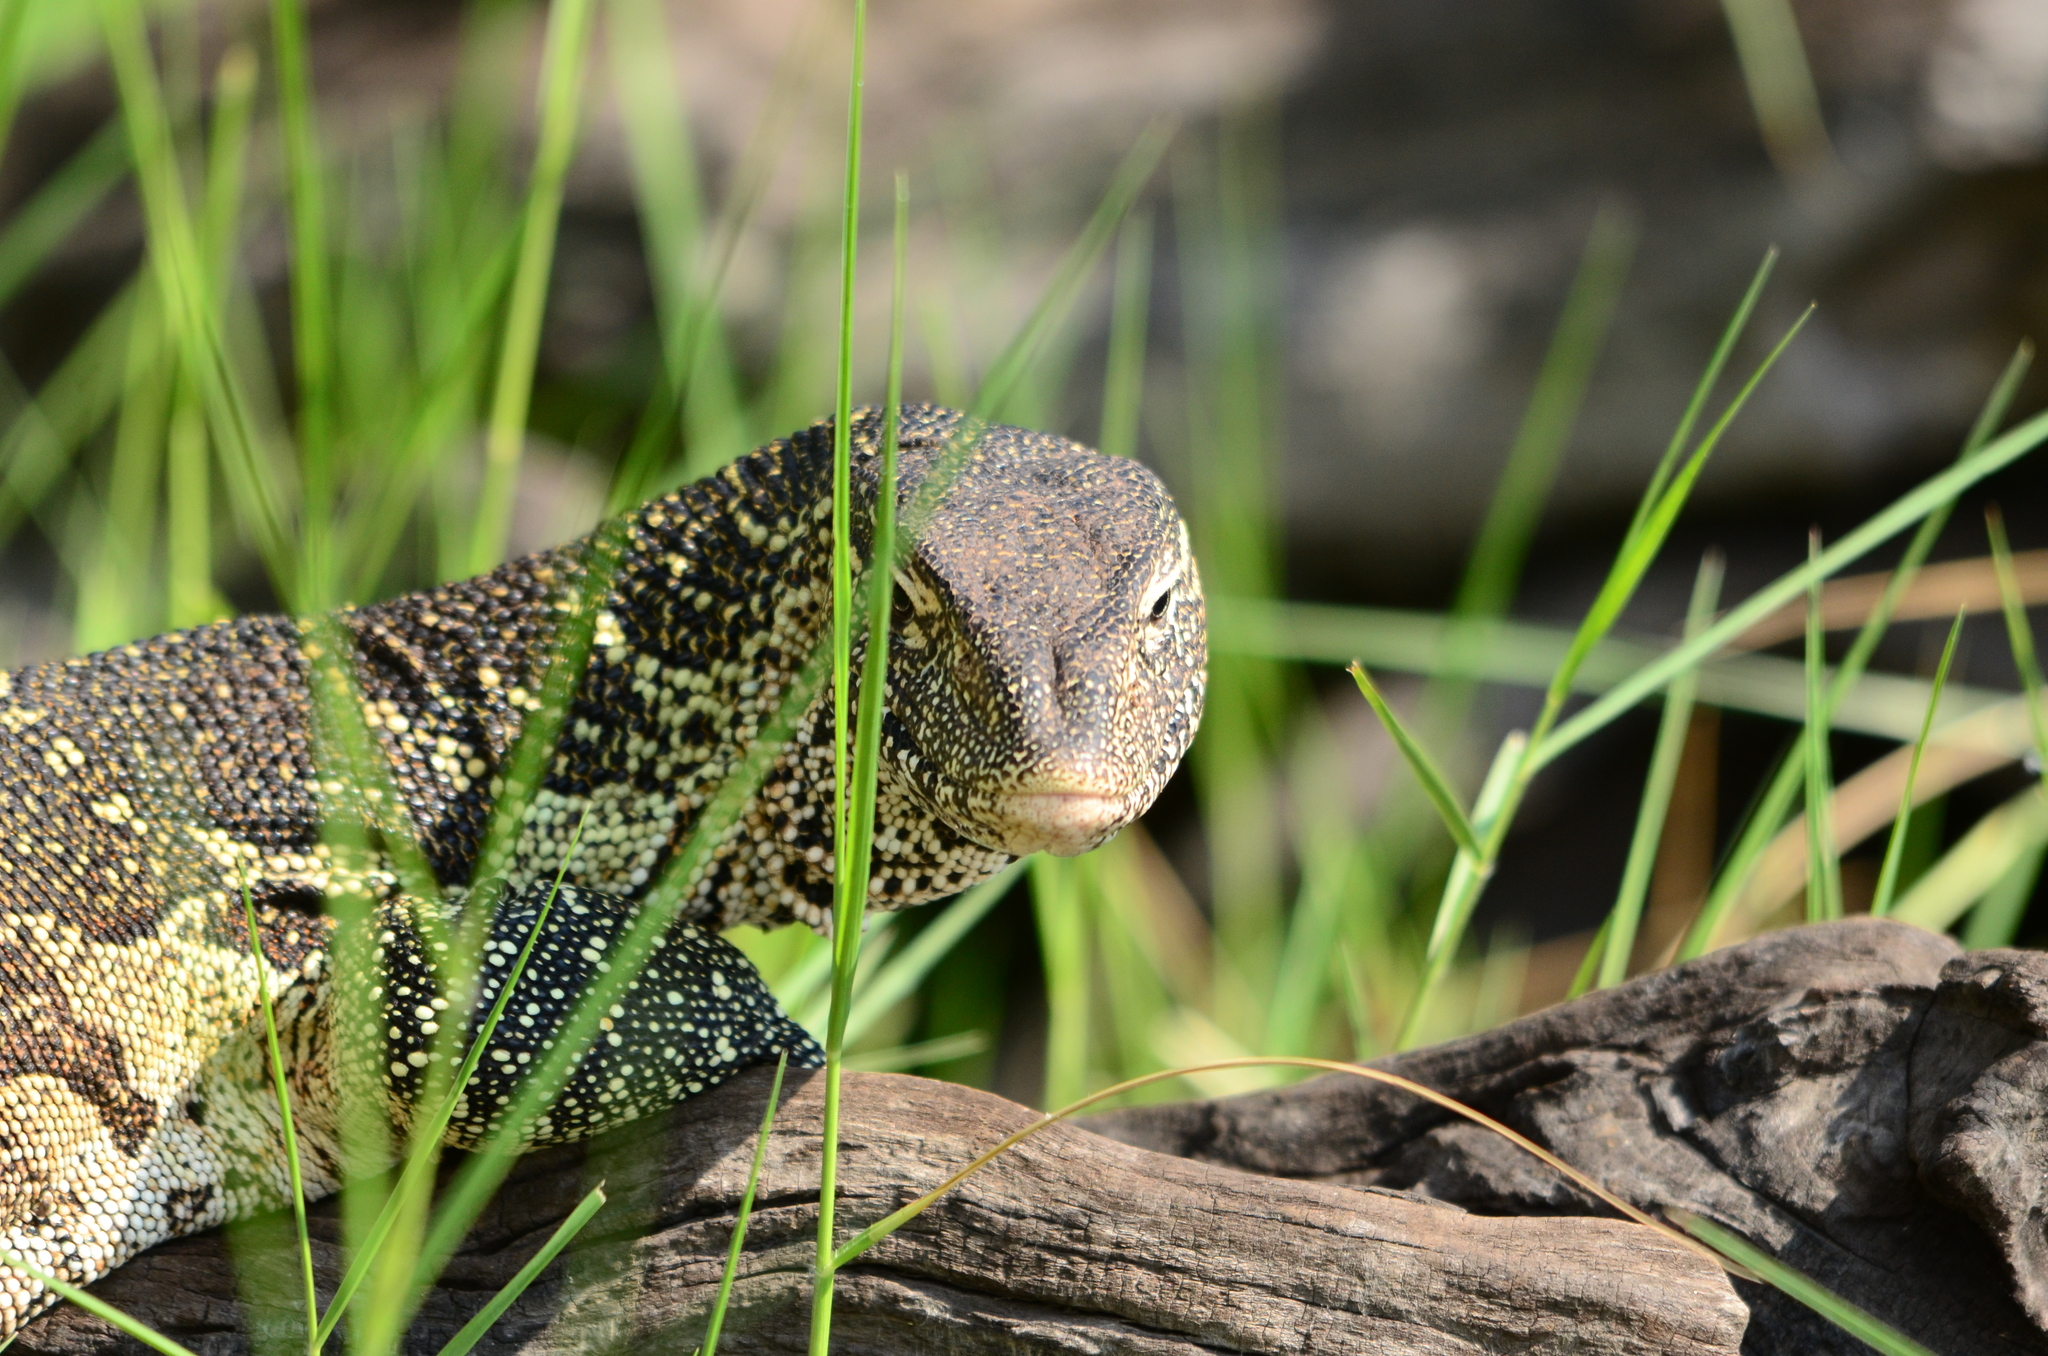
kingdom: Animalia
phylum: Chordata
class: Squamata
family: Varanidae
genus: Varanus
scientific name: Varanus niloticus
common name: Nile monitor
